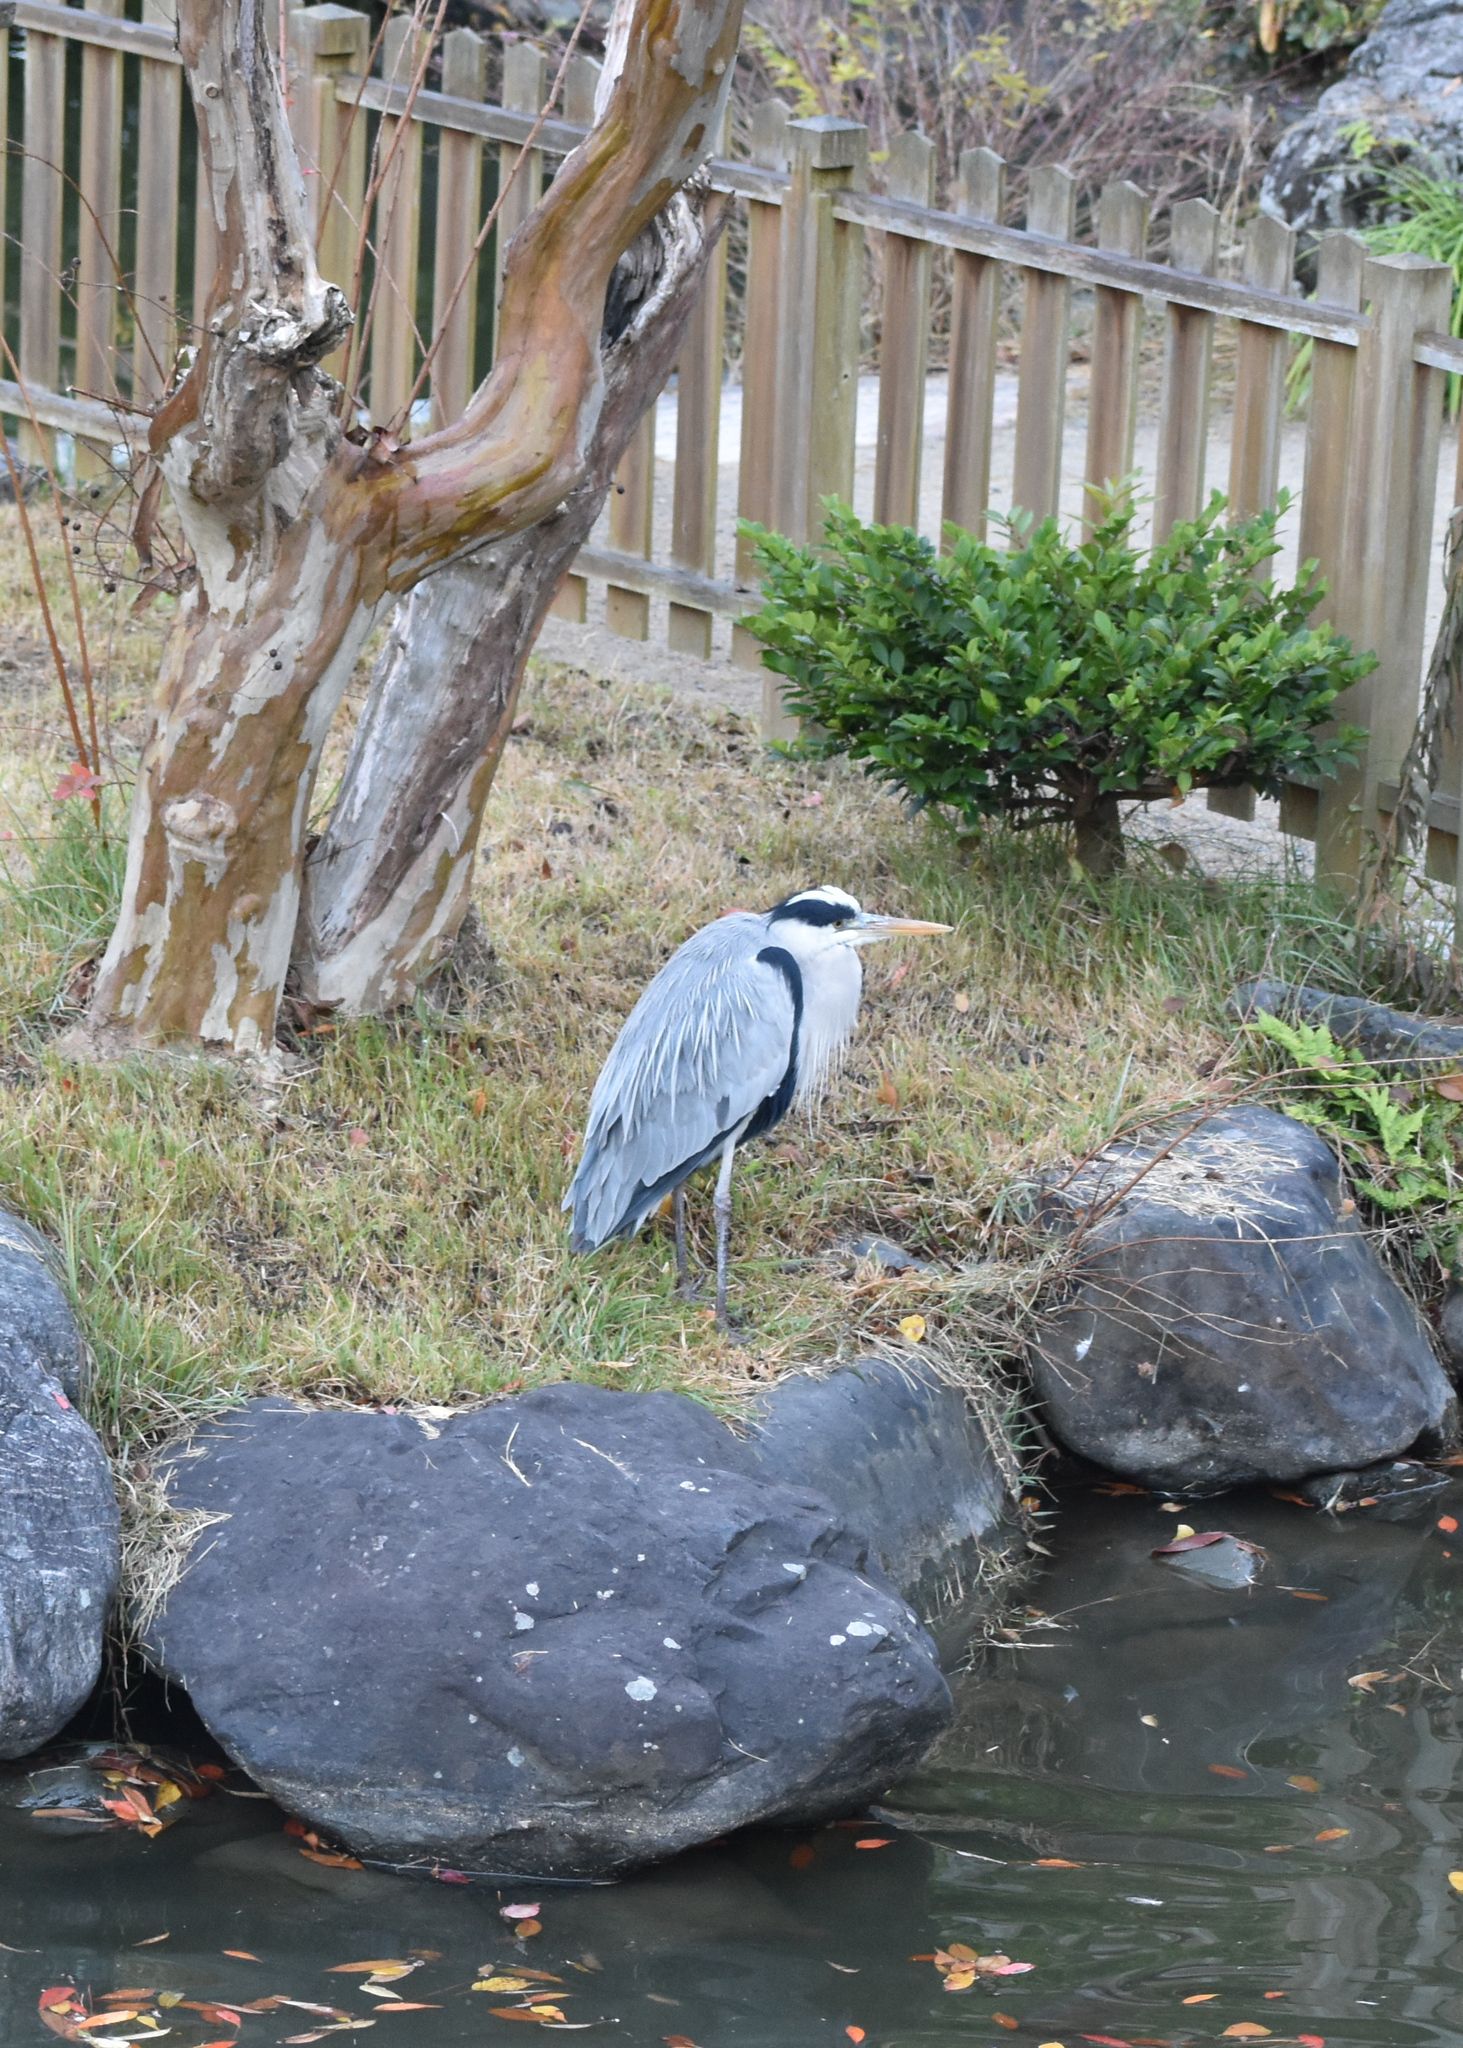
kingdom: Animalia
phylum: Chordata
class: Aves
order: Pelecaniformes
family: Ardeidae
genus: Ardea
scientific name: Ardea cinerea
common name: Grey heron
